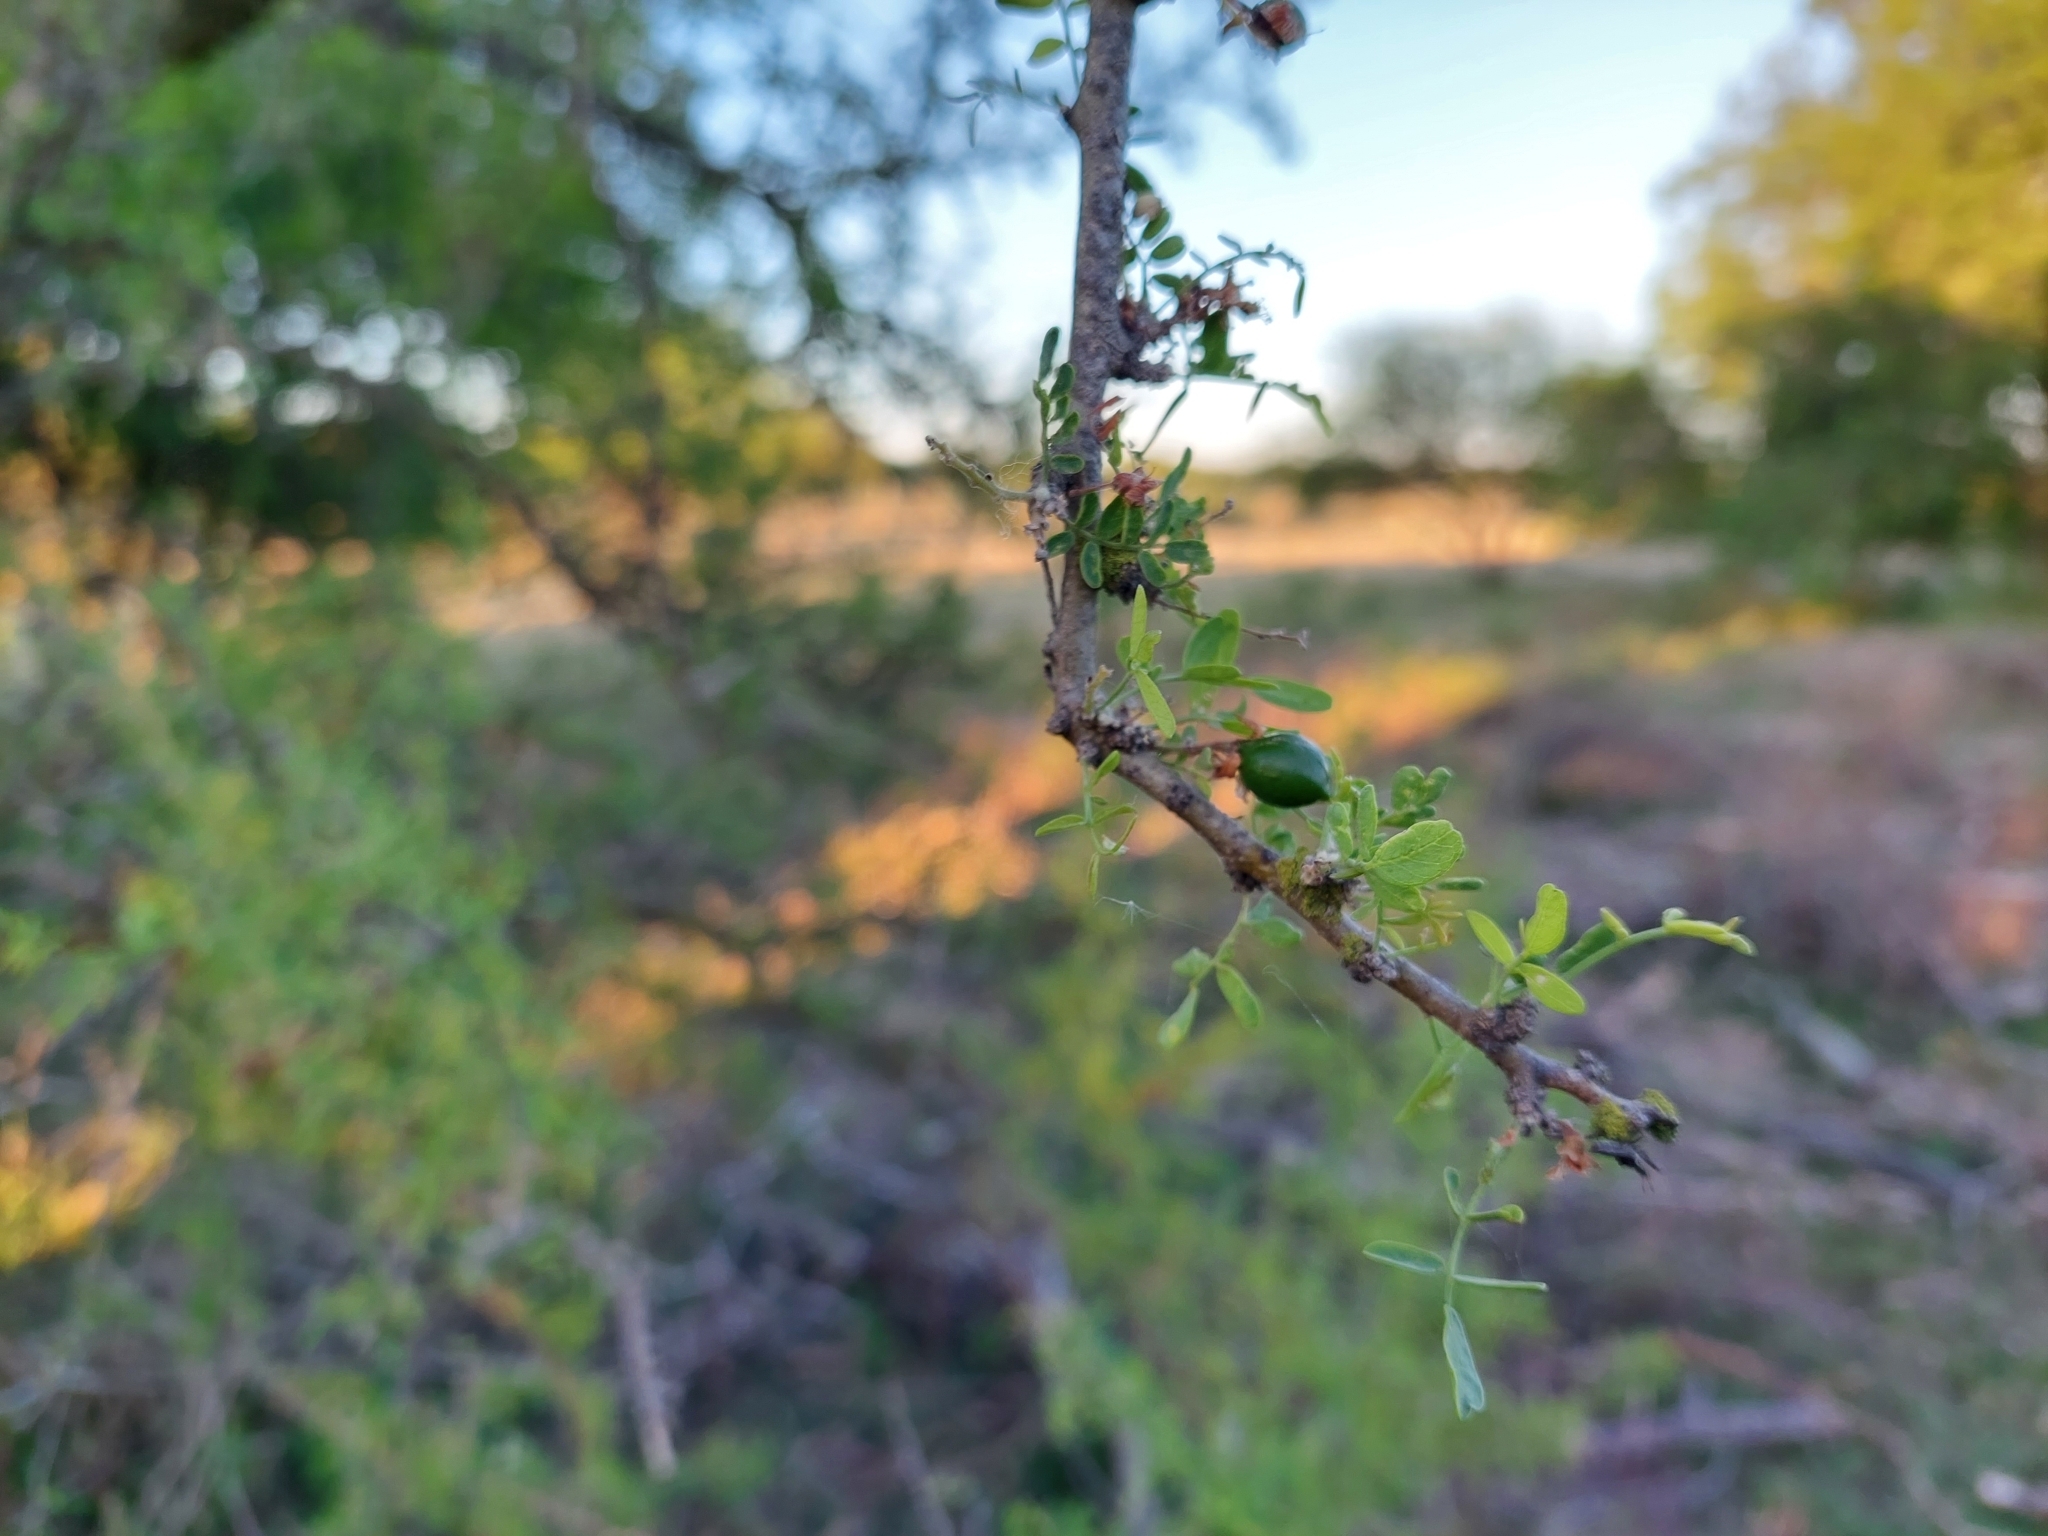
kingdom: Plantae
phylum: Tracheophyta
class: Magnoliopsida
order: Fabales
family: Fabaceae
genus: Geoffroea
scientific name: Geoffroea decorticans
